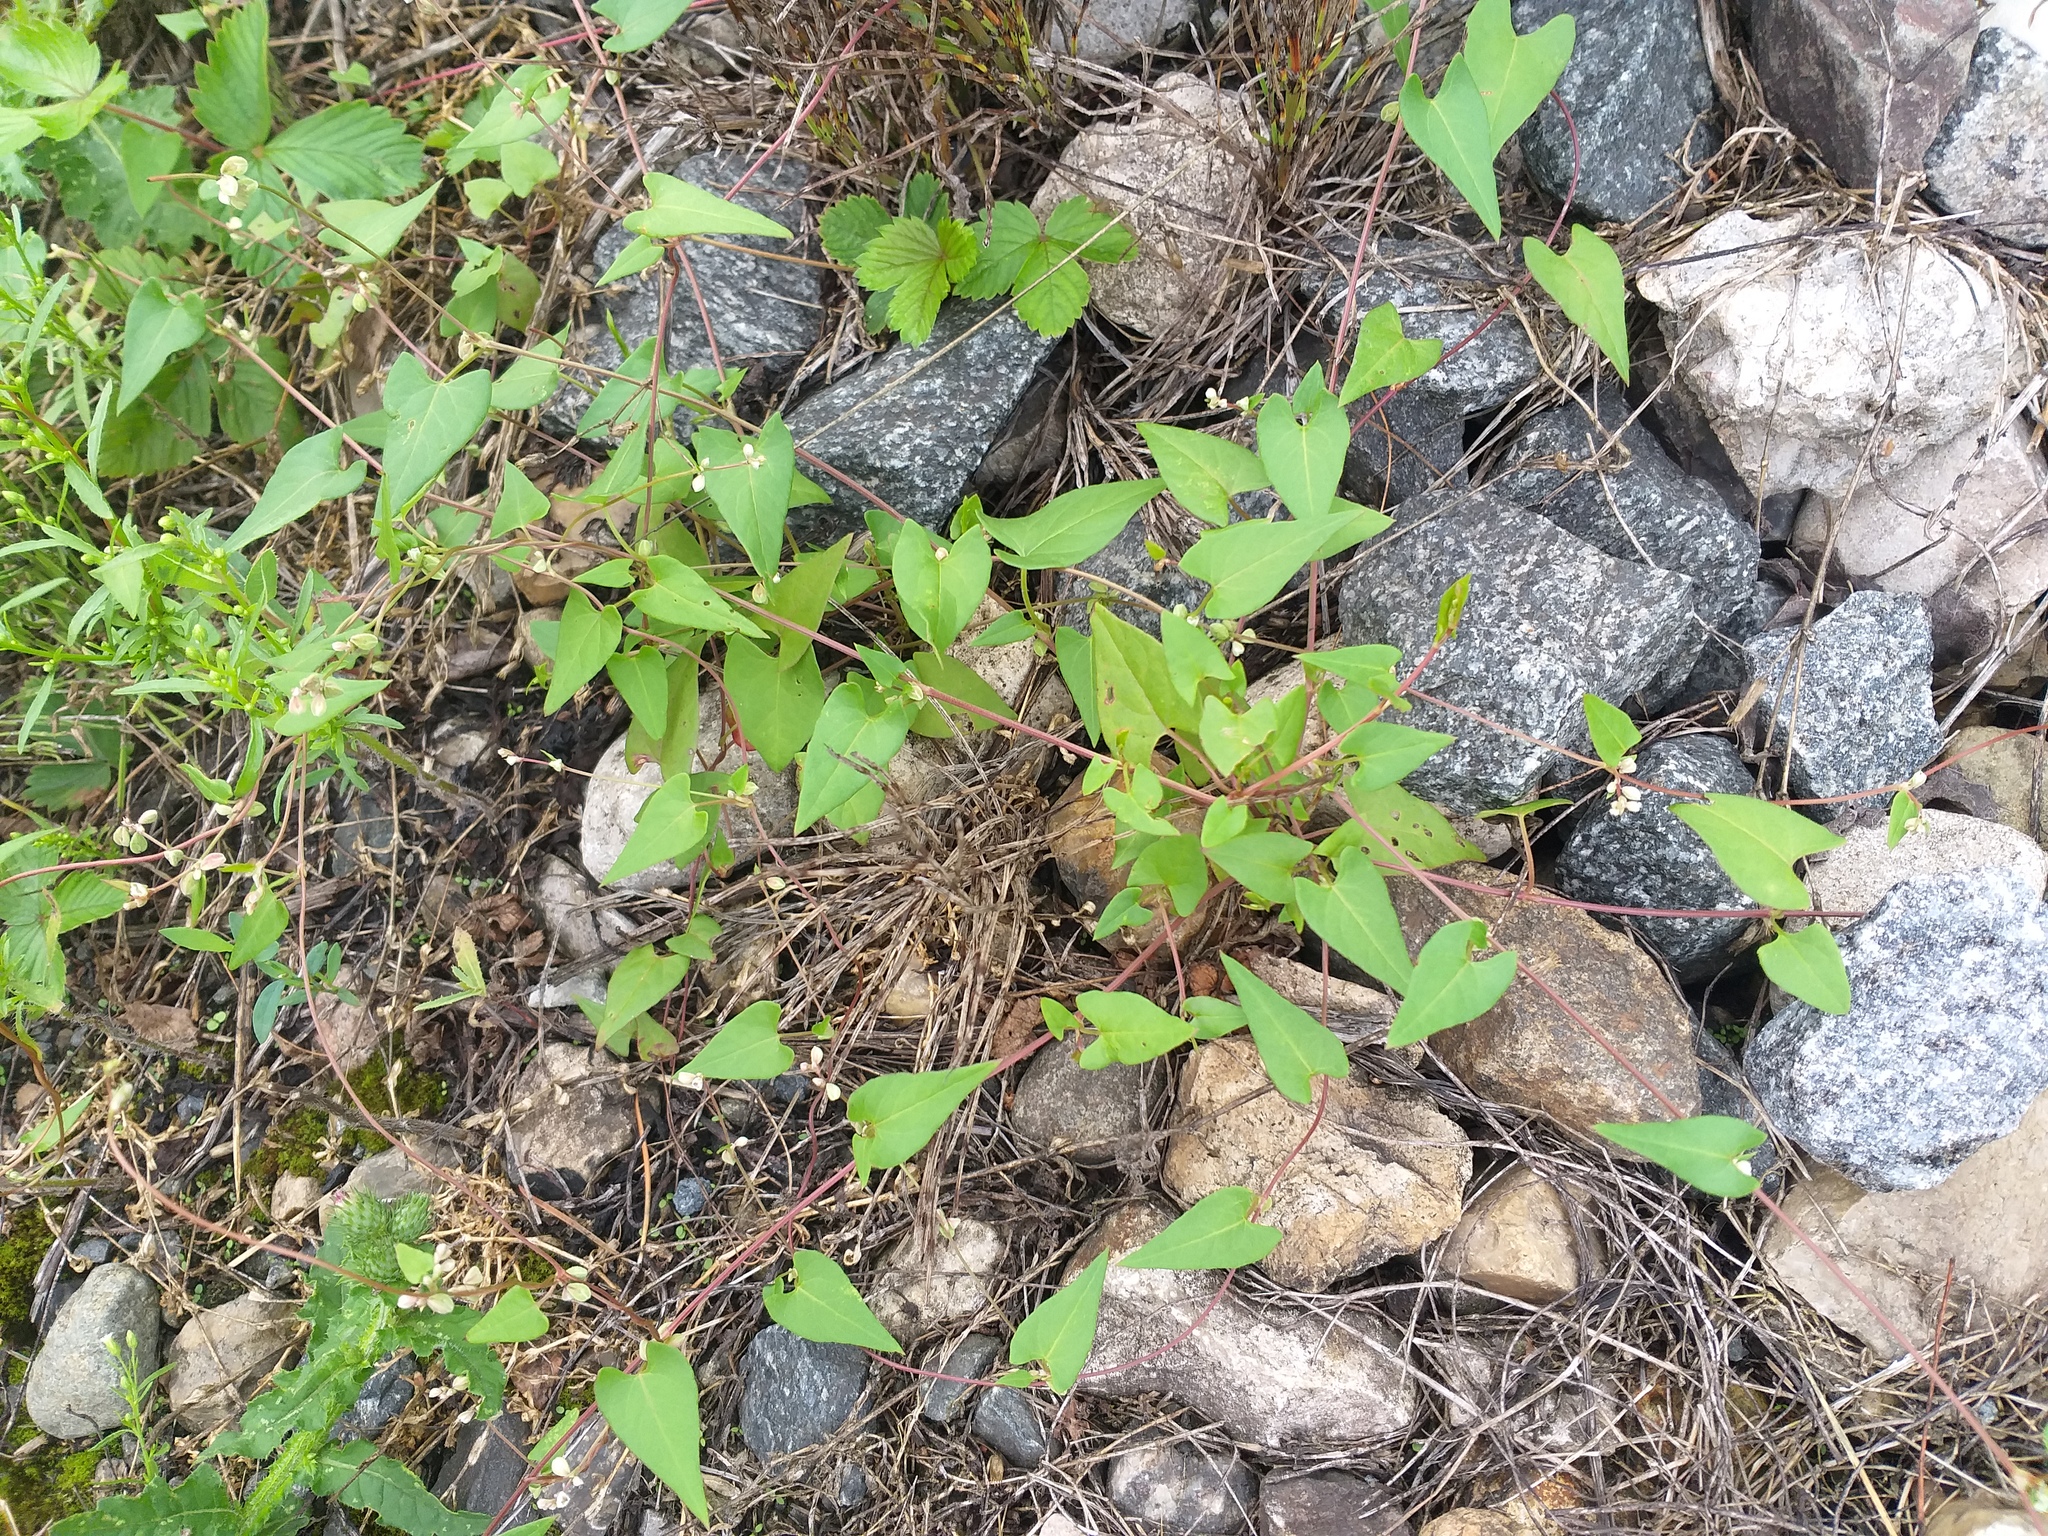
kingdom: Plantae
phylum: Tracheophyta
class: Magnoliopsida
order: Caryophyllales
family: Polygonaceae
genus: Fallopia
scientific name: Fallopia convolvulus
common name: Black bindweed
